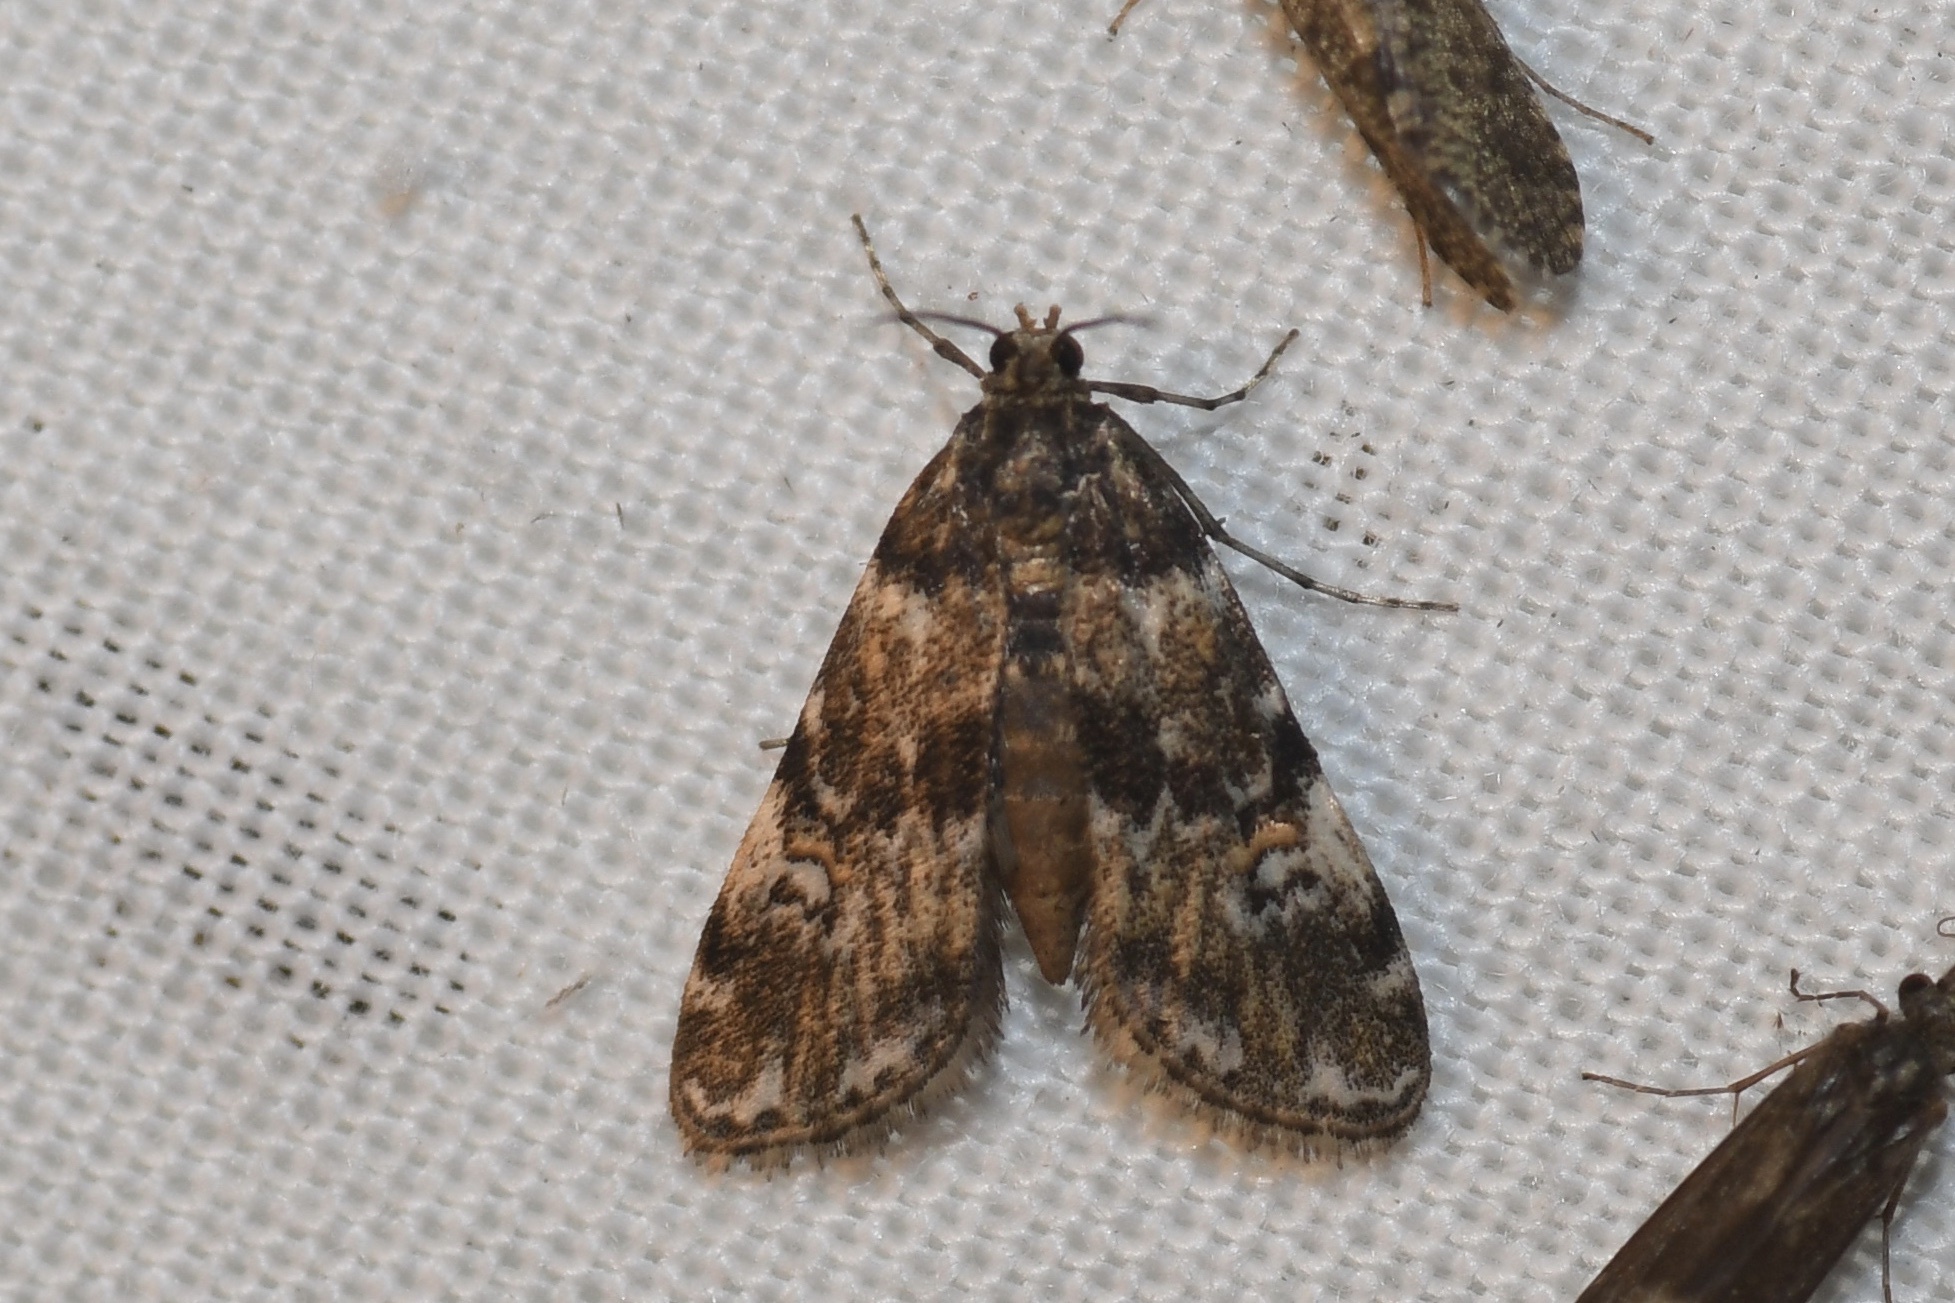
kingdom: Animalia
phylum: Arthropoda
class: Insecta
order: Lepidoptera
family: Crambidae
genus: Elophila
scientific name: Elophila obliteralis
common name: Waterlily leafcutter moth
